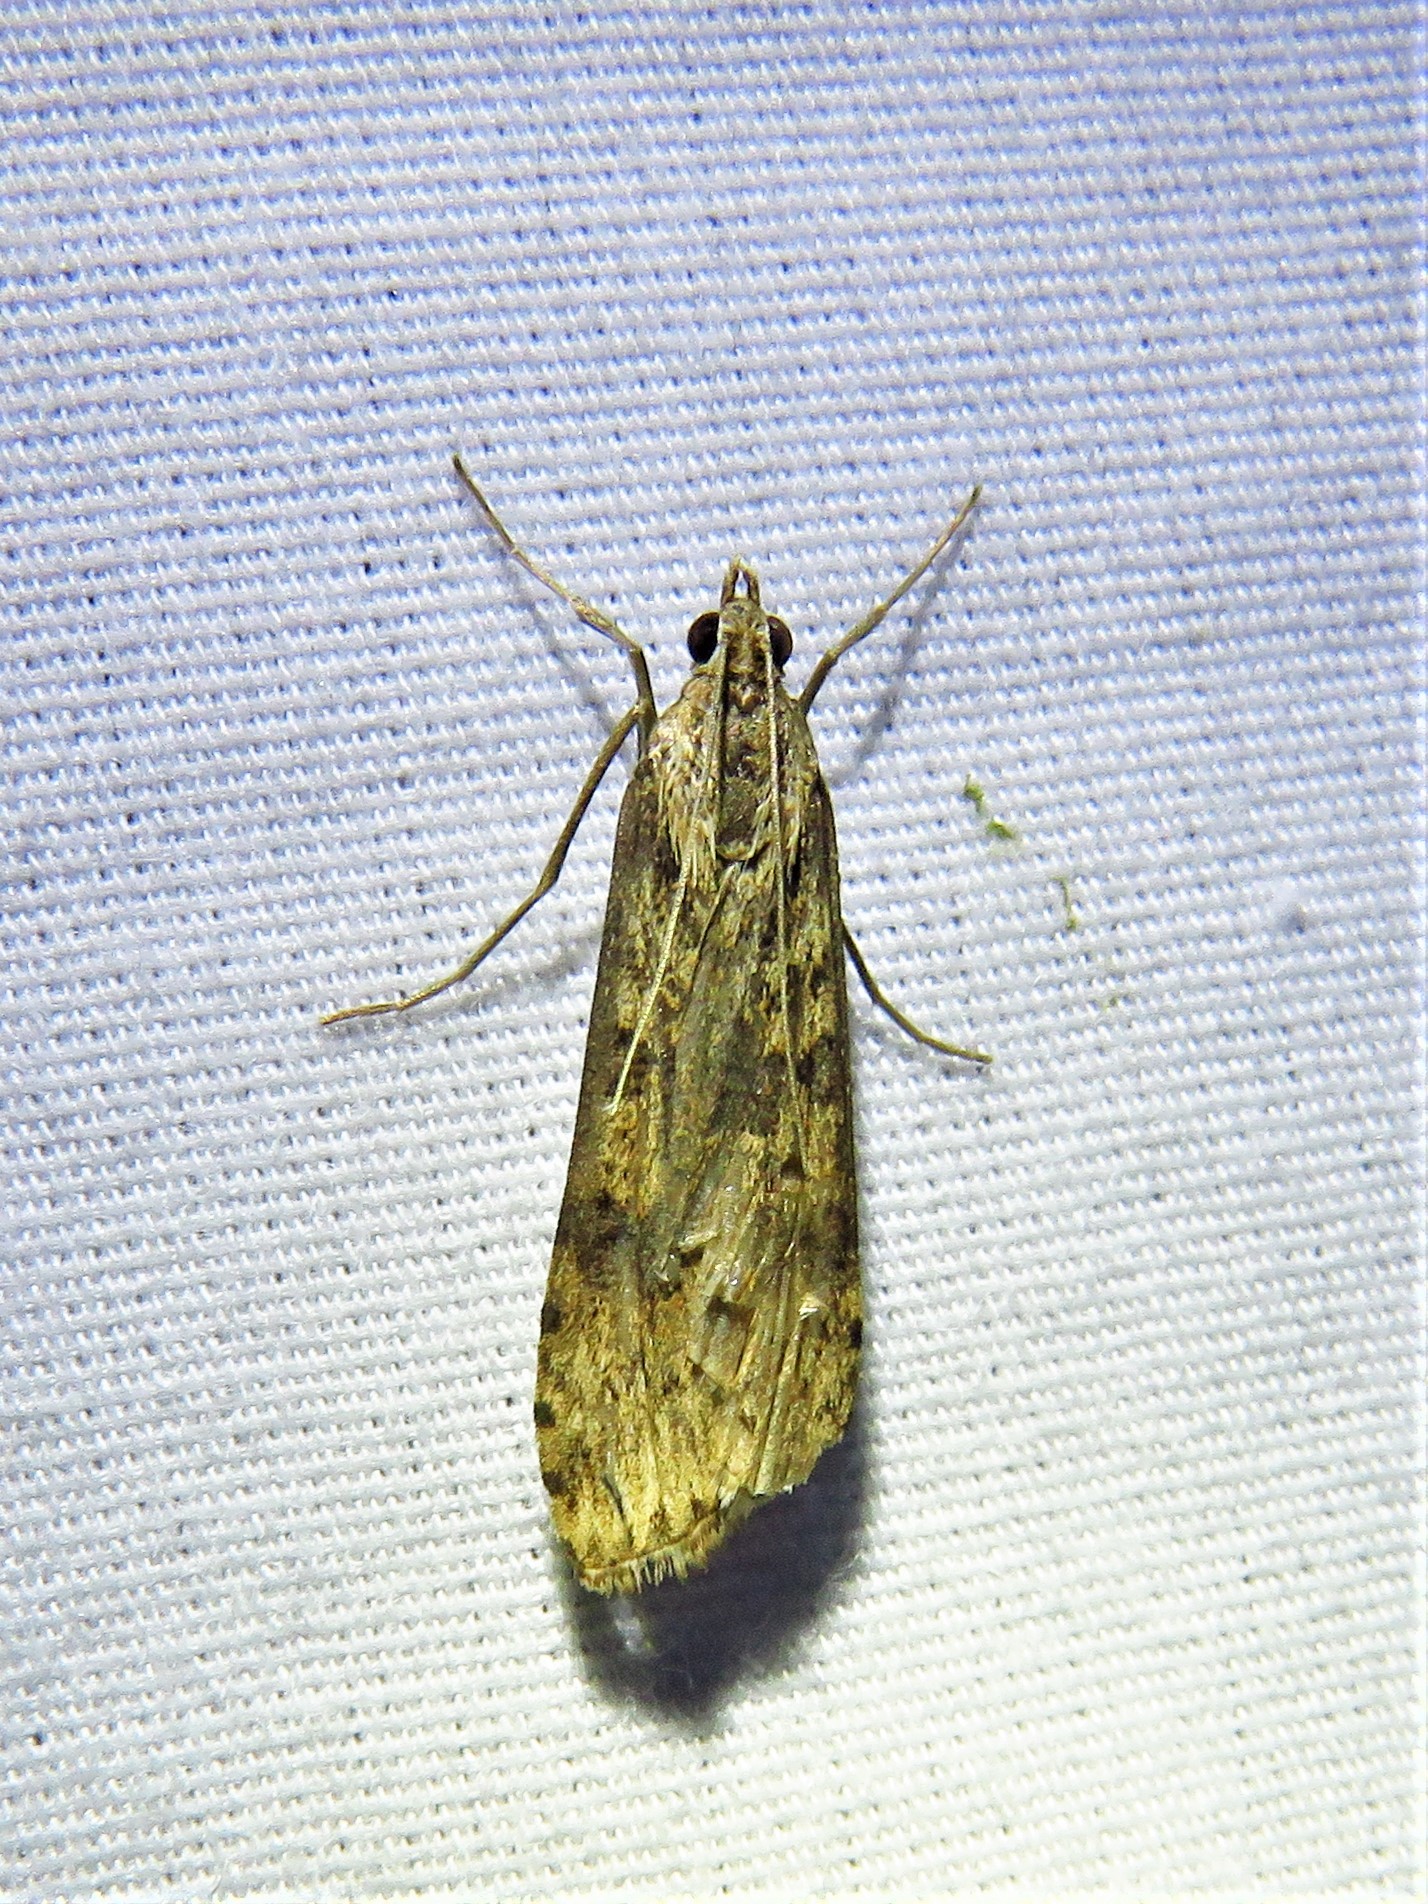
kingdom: Animalia
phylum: Arthropoda
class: Insecta
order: Lepidoptera
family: Crambidae
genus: Nomophila
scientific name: Nomophila nearctica
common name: American rush veneer
